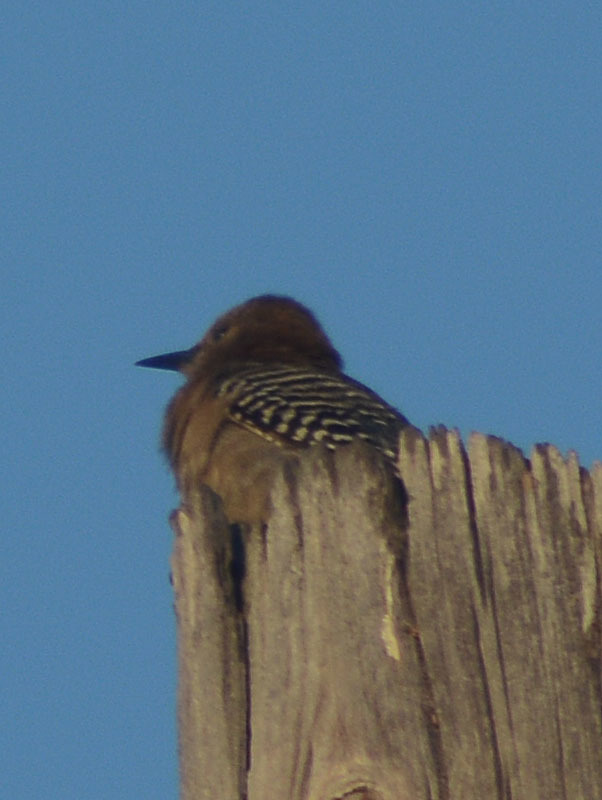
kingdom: Animalia
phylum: Chordata
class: Aves
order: Piciformes
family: Picidae
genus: Melanerpes
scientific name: Melanerpes uropygialis
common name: Gila woodpecker
